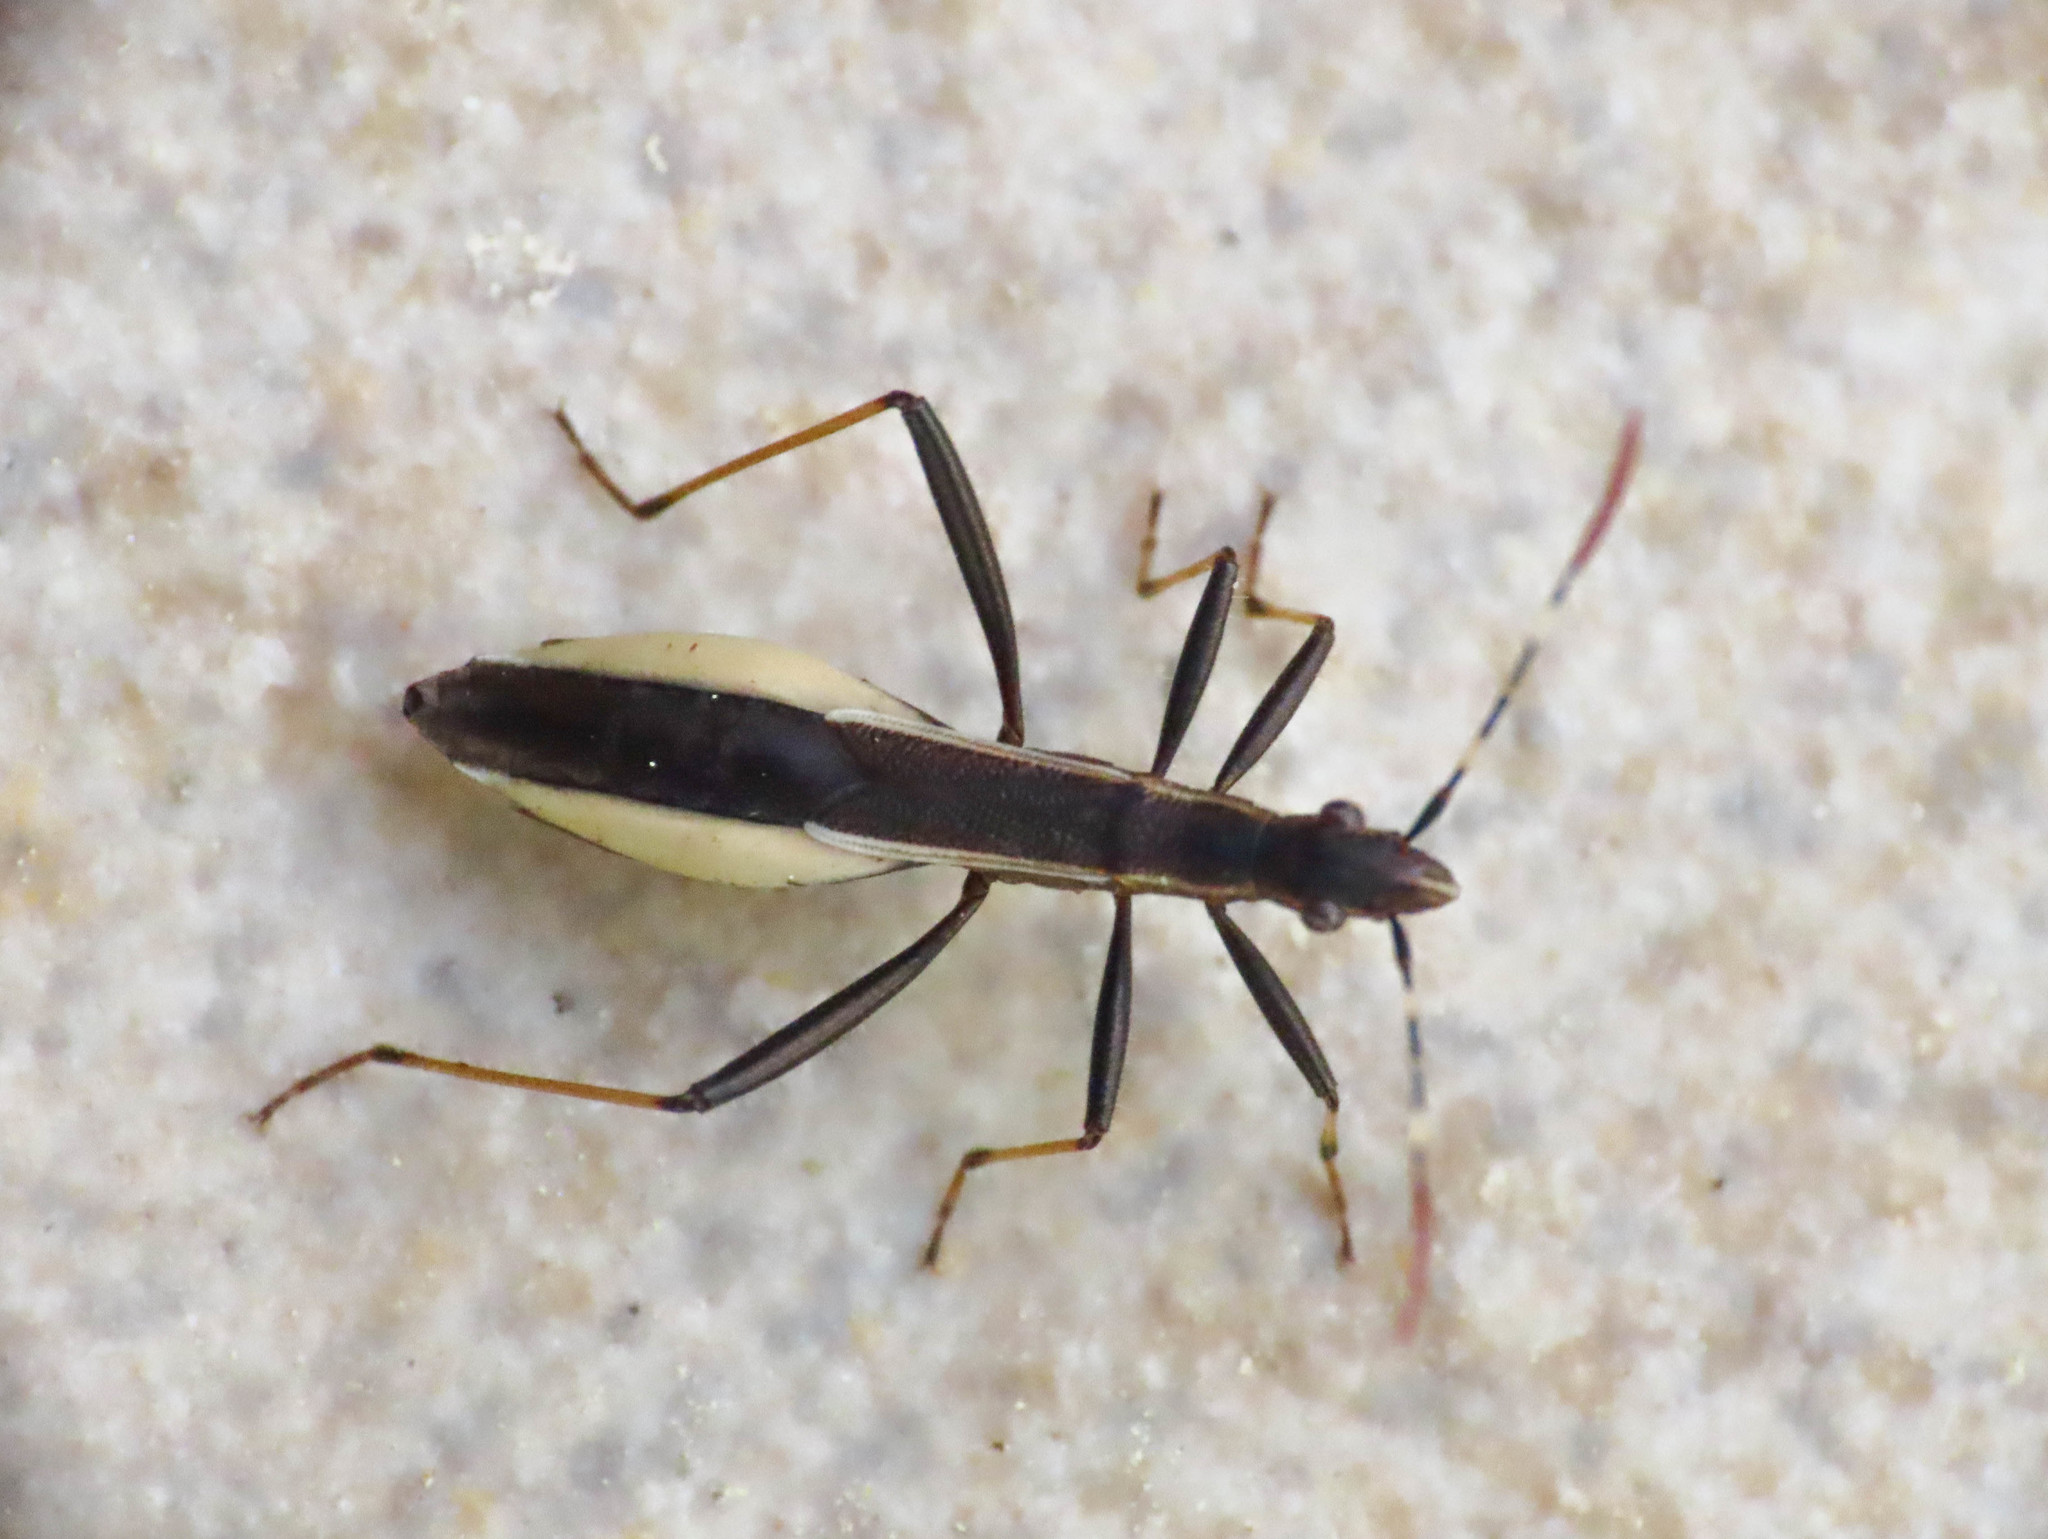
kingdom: Animalia
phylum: Arthropoda
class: Insecta
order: Hemiptera
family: Alydidae
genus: Micrelytra
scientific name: Micrelytra fossularum
